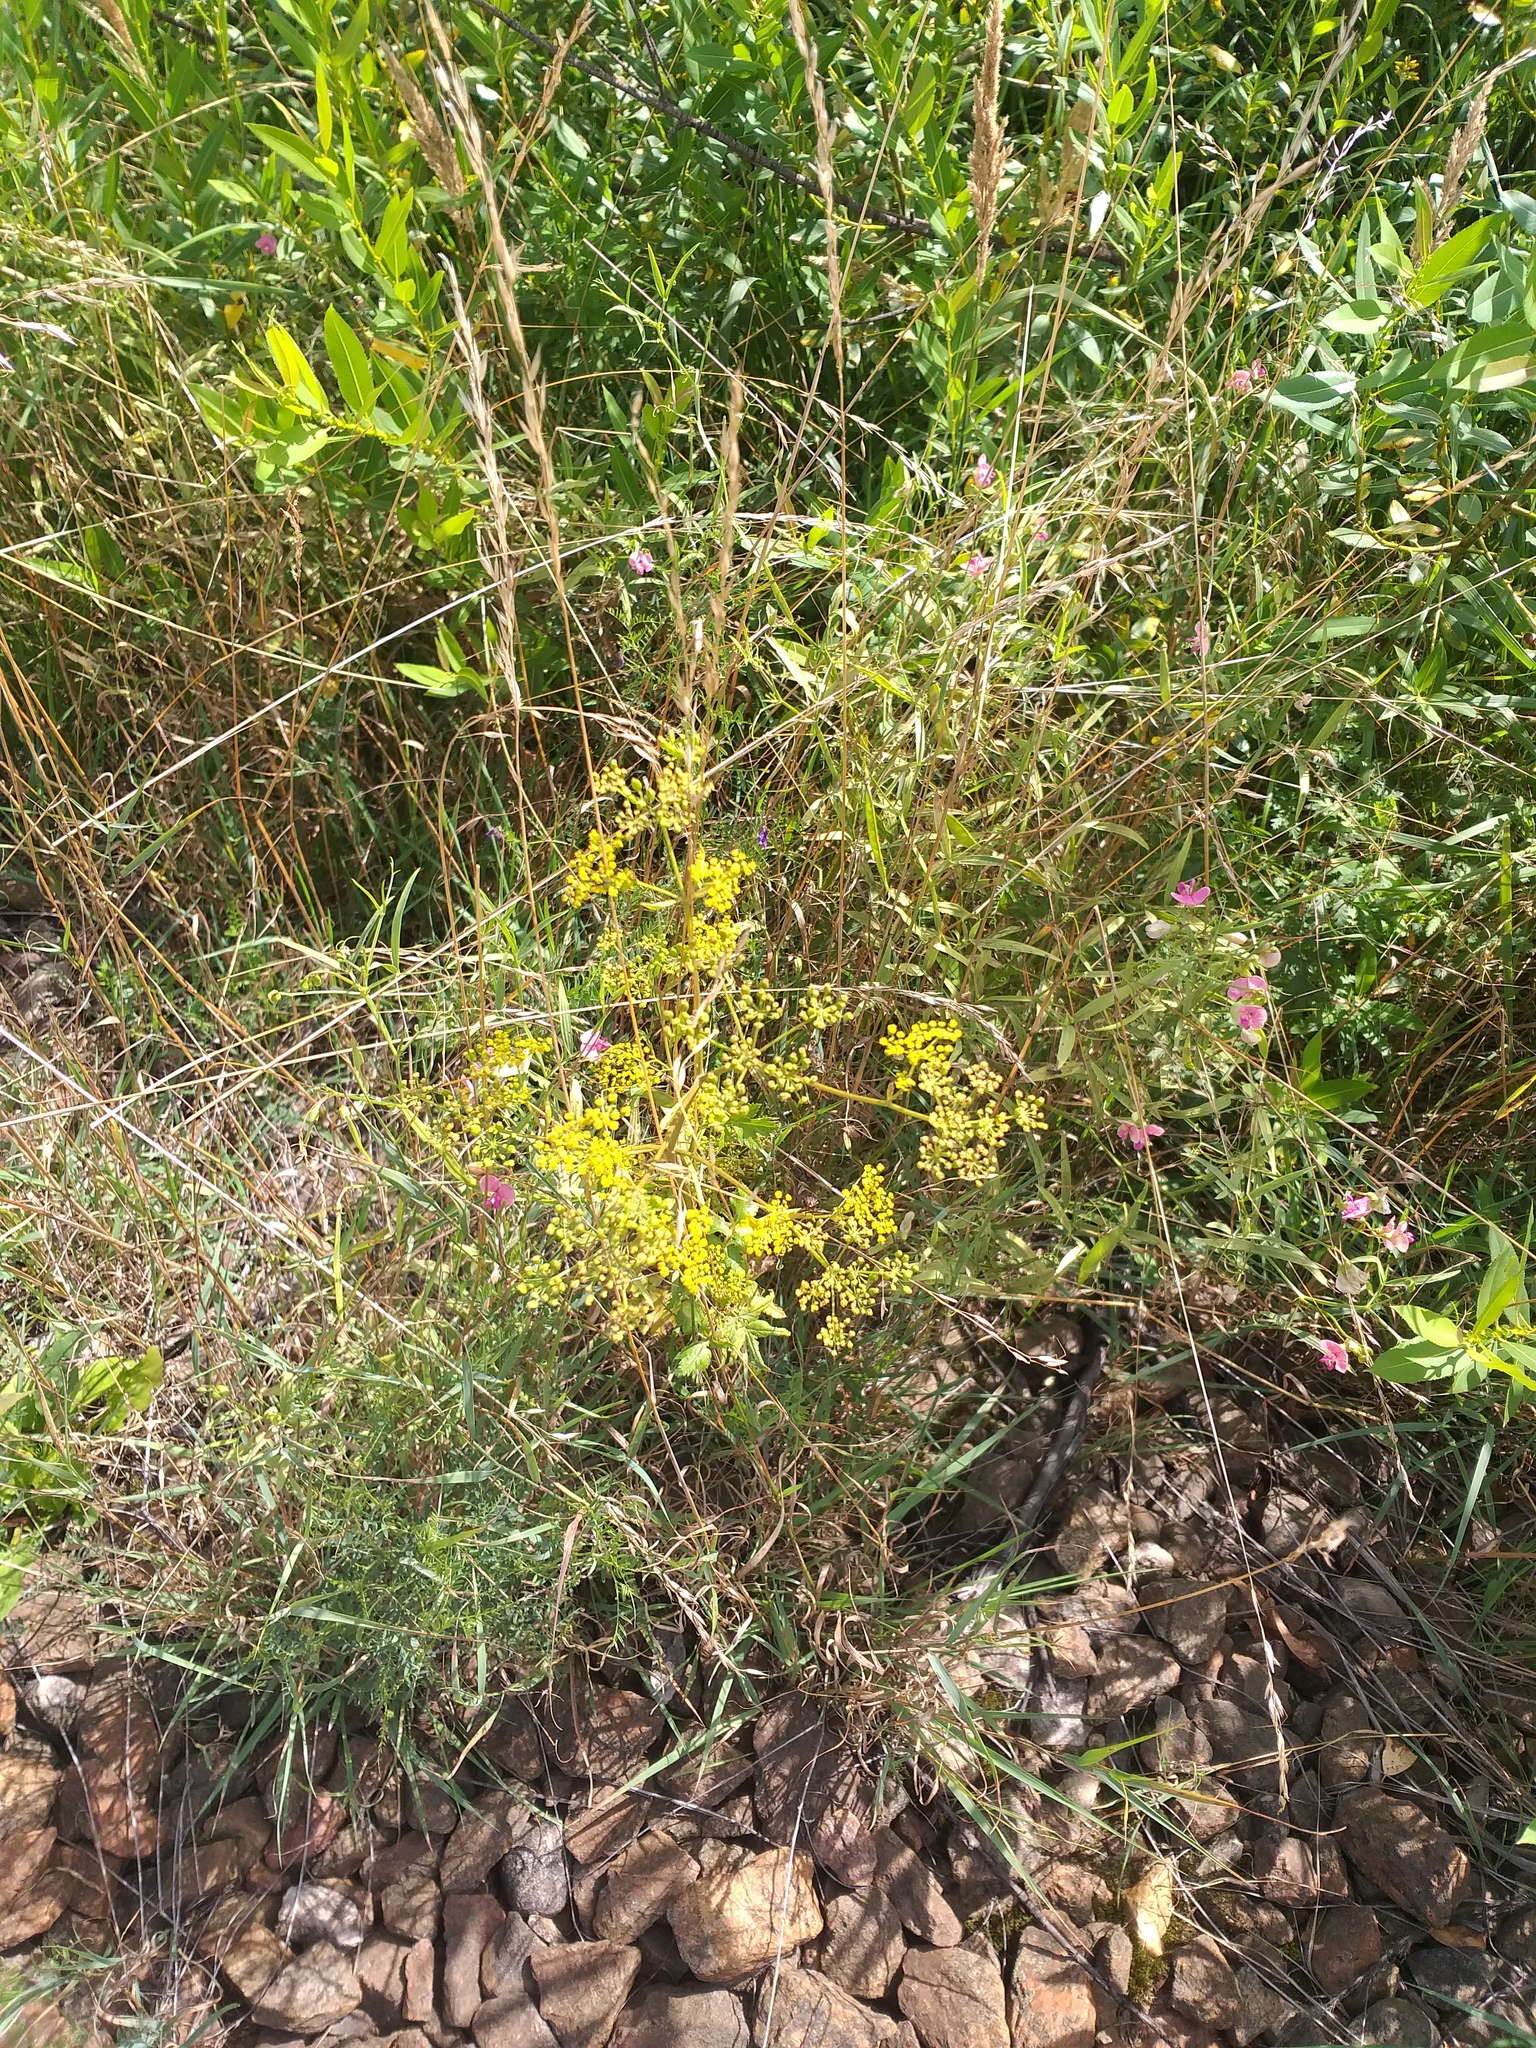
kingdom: Plantae
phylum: Tracheophyta
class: Magnoliopsida
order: Apiales
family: Apiaceae
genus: Pastinaca
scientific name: Pastinaca sativa
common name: Wild parsnip
